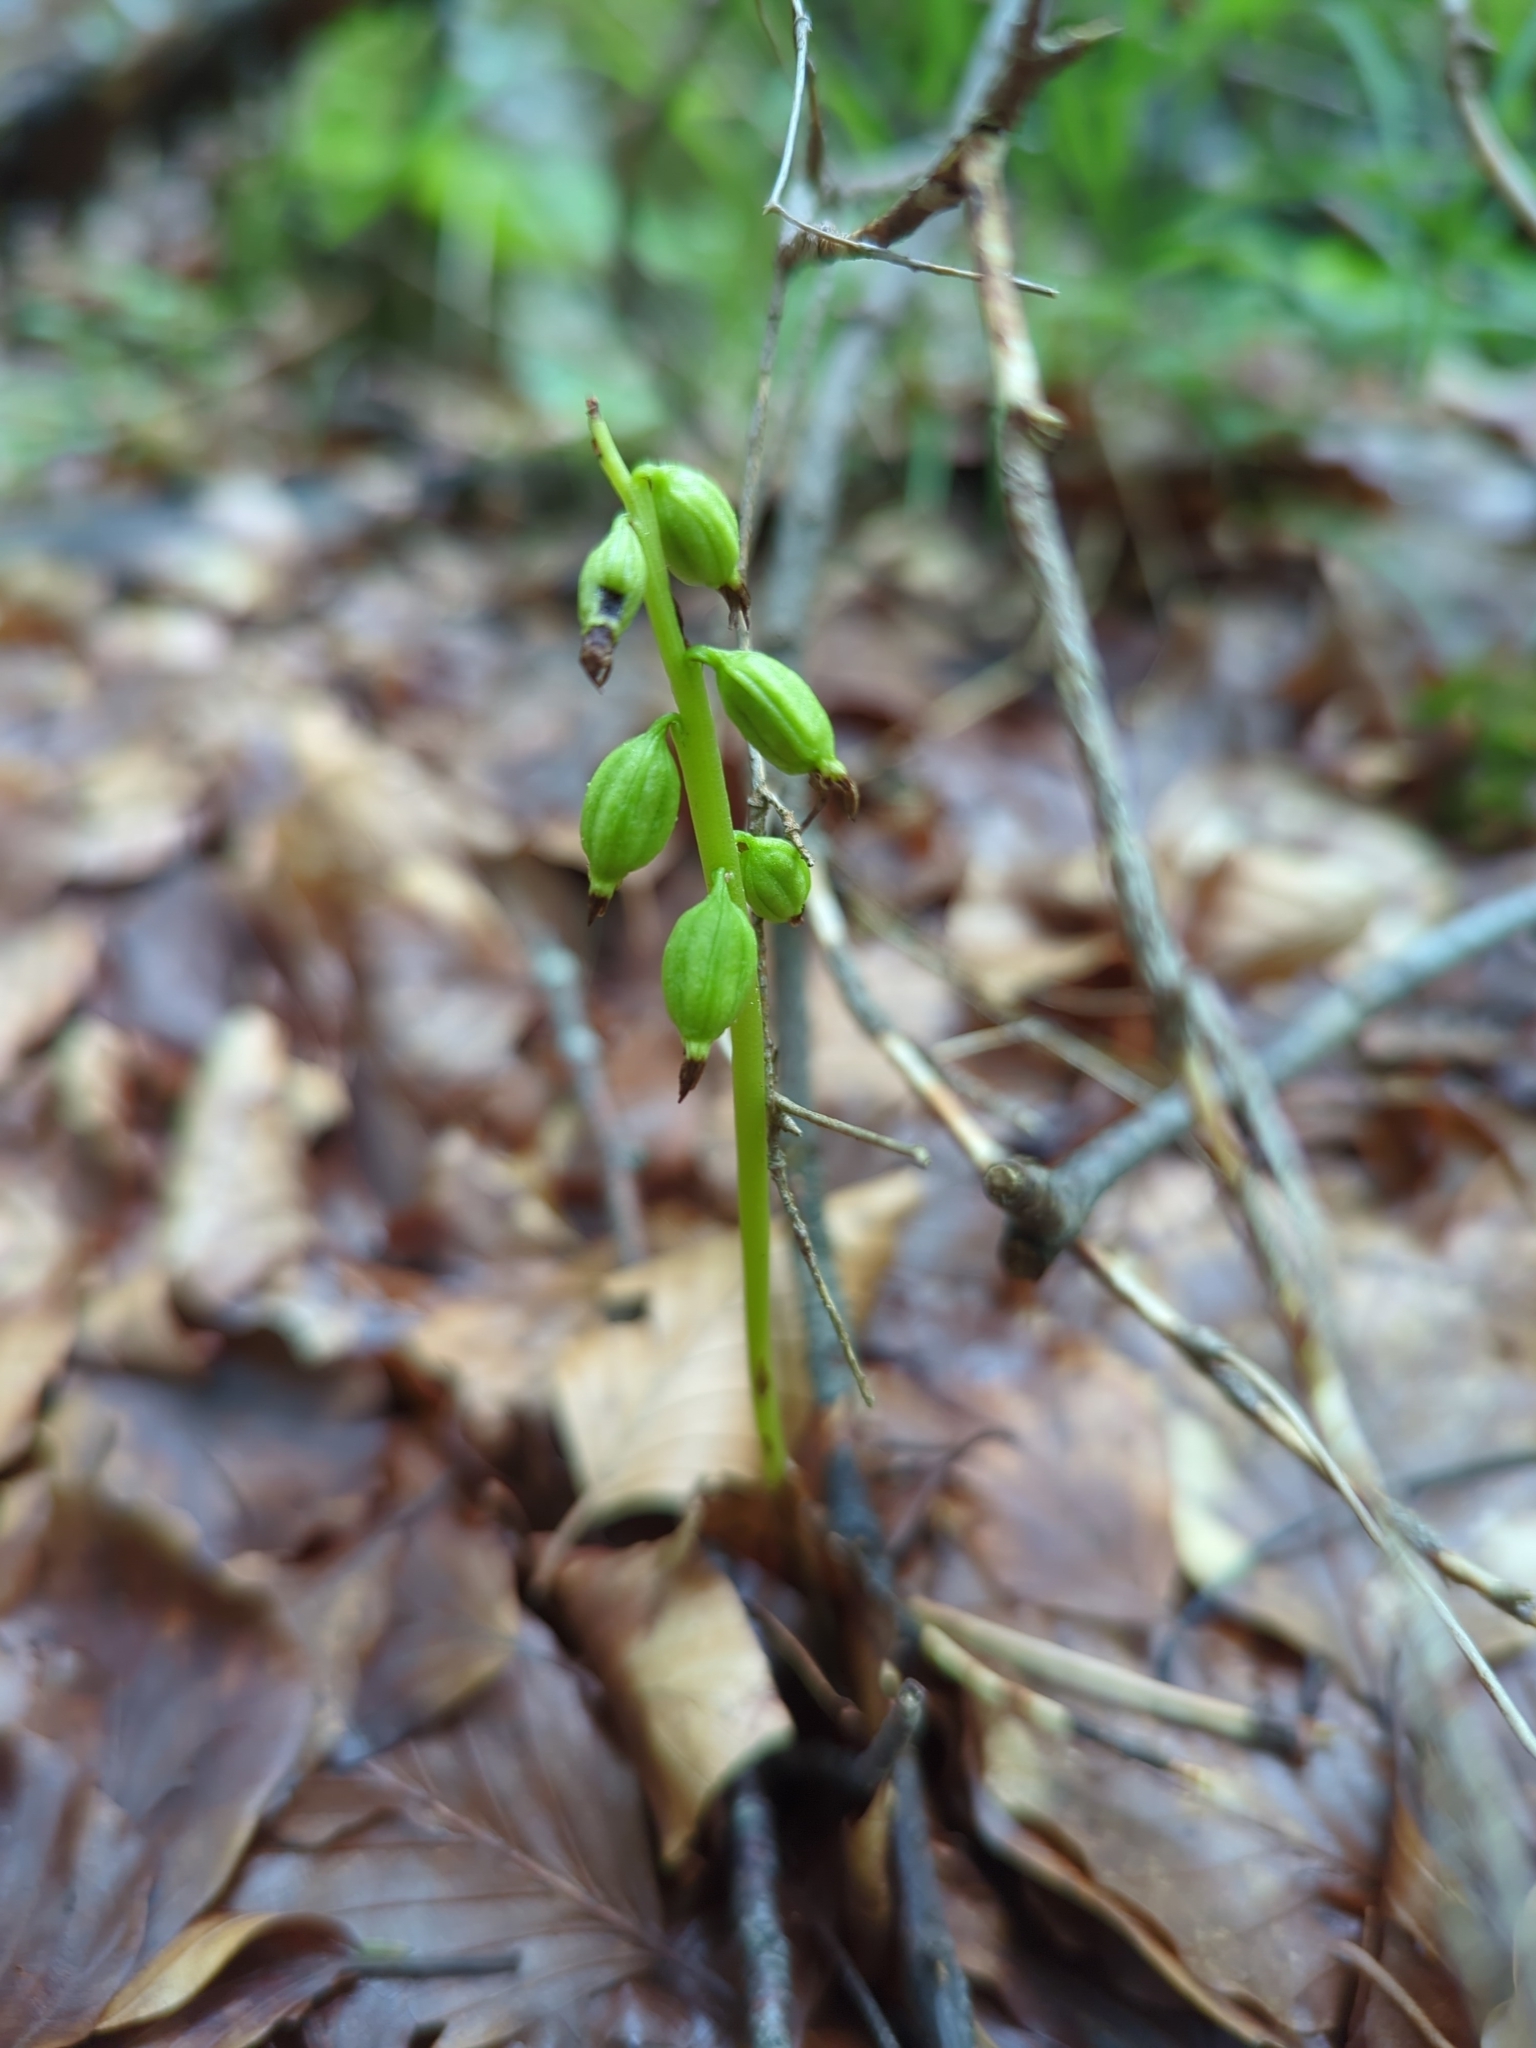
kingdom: Plantae
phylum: Tracheophyta
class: Liliopsida
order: Asparagales
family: Orchidaceae
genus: Corallorhiza
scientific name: Corallorhiza trifida
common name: Yellow coralroot
